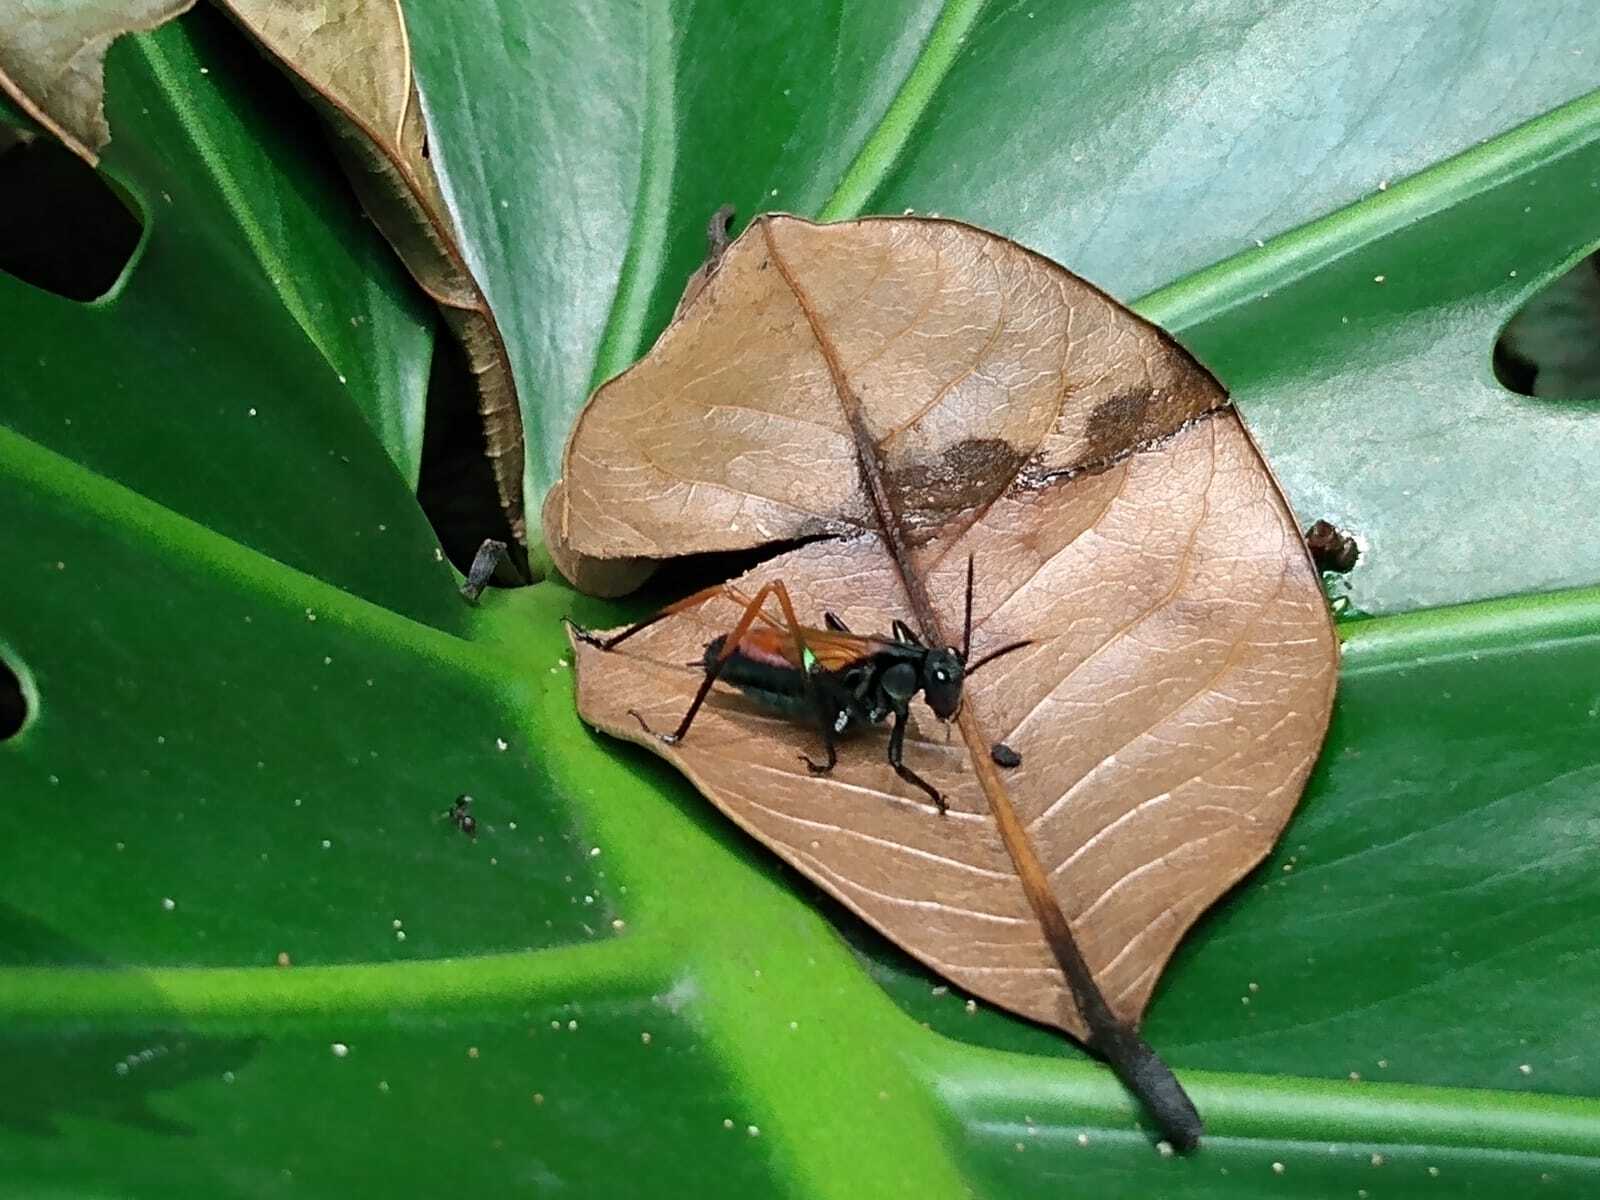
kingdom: Animalia
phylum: Arthropoda
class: Insecta
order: Orthoptera
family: Tettigoniidae
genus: Scaphura
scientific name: Scaphura nigra
